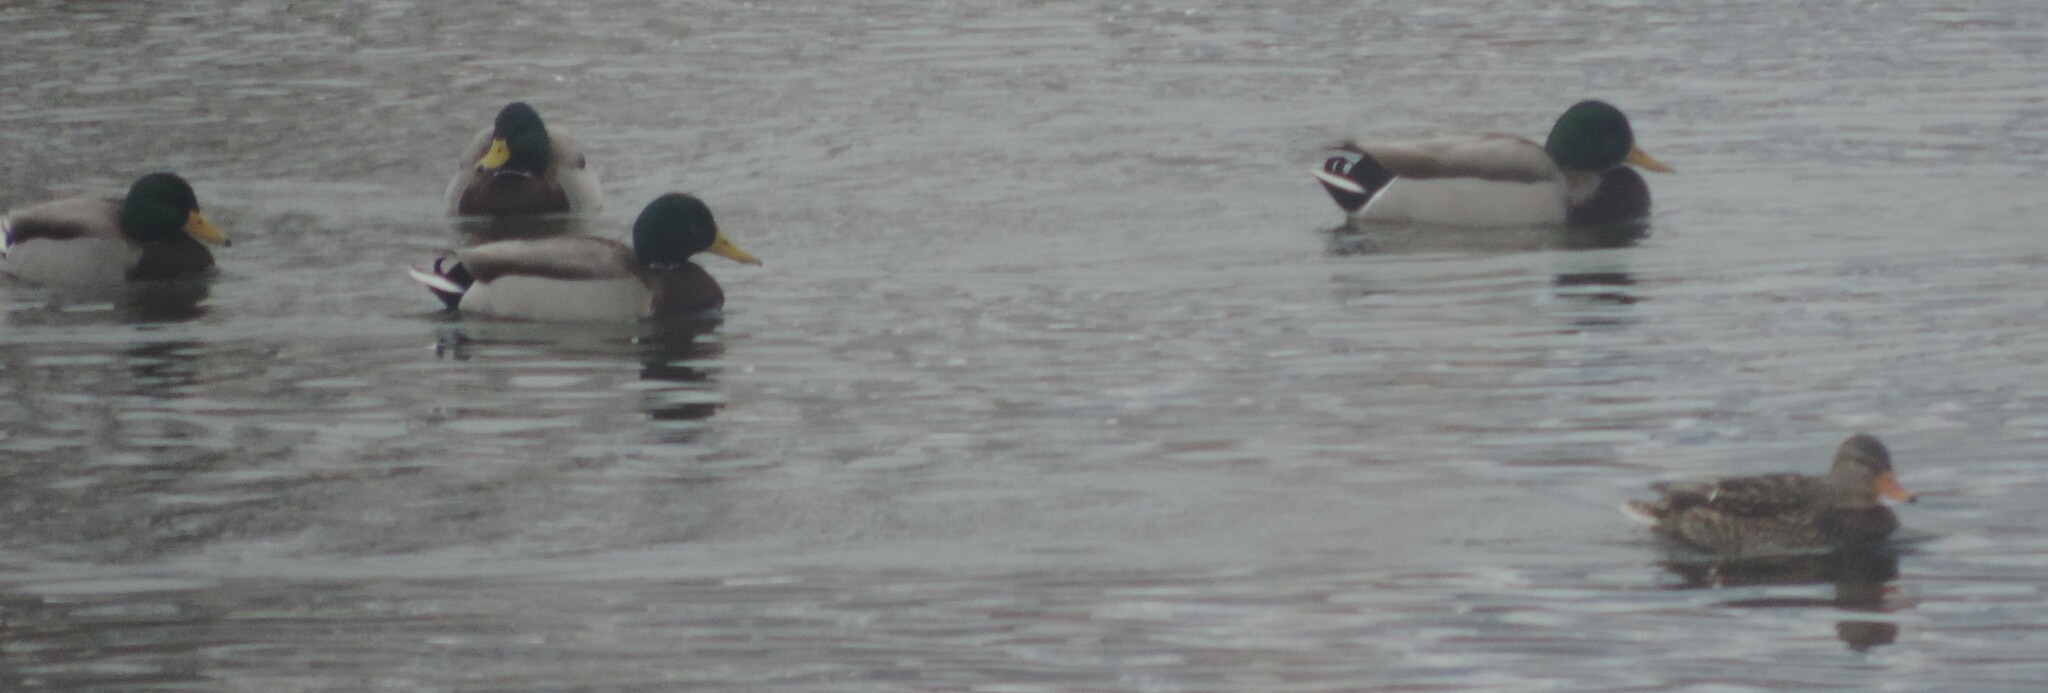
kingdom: Animalia
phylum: Chordata
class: Aves
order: Anseriformes
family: Anatidae
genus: Anas
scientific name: Anas platyrhynchos
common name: Mallard
